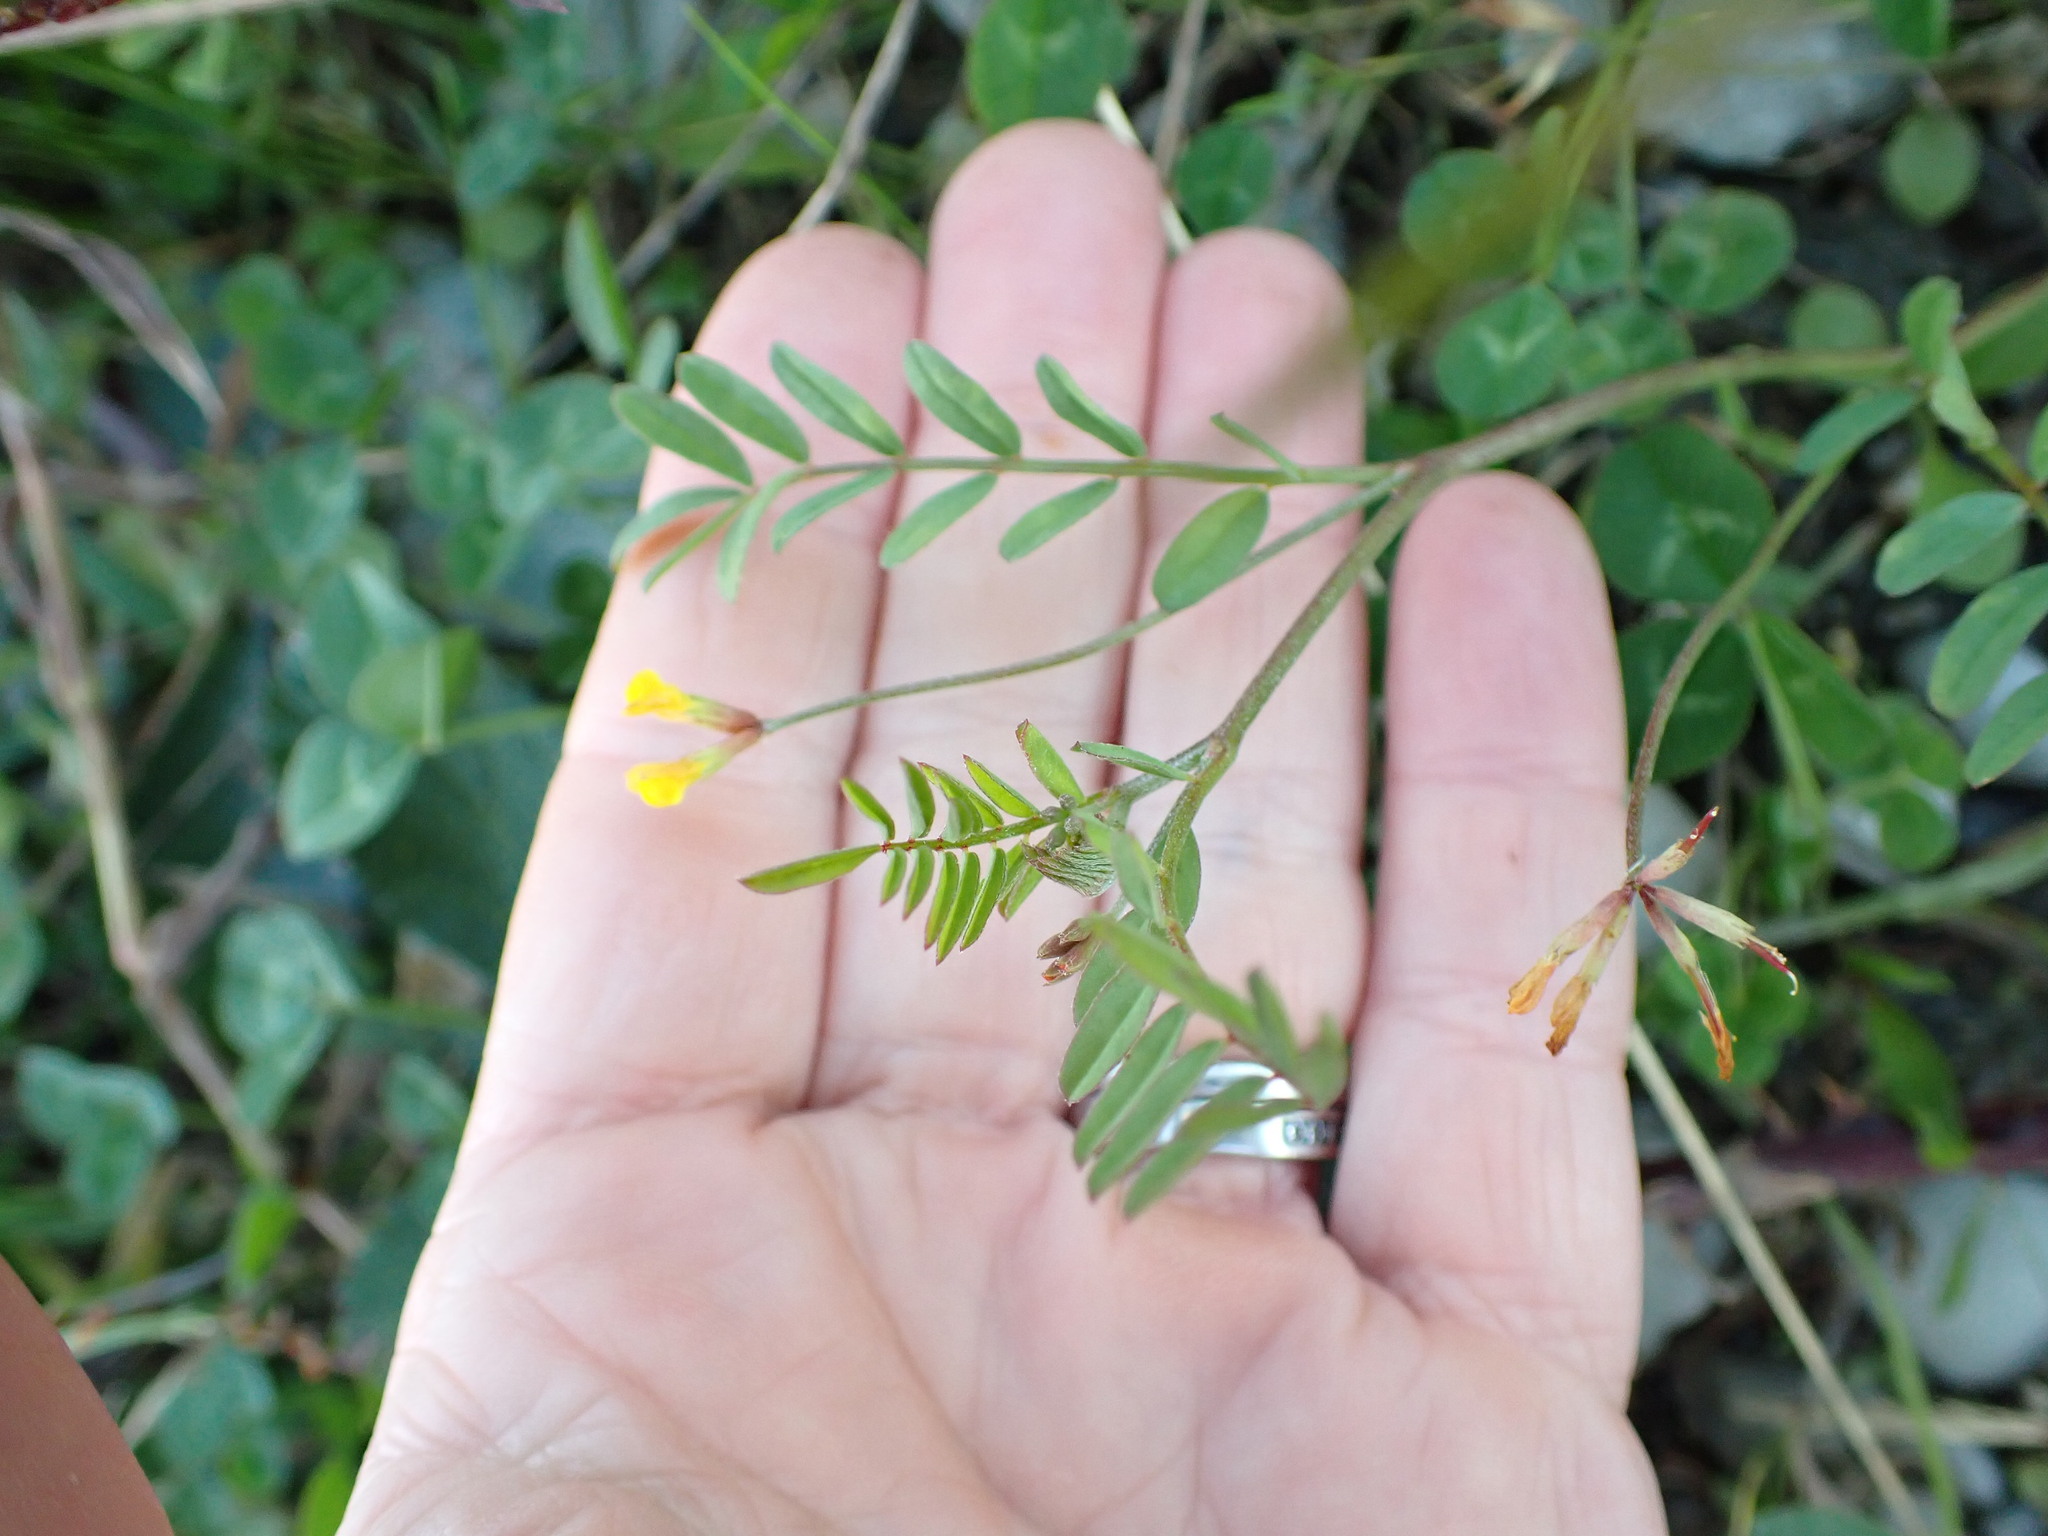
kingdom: Plantae
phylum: Tracheophyta
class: Magnoliopsida
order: Fabales
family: Fabaceae
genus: Ornithopus
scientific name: Ornithopus pinnatus
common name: Orange bird's-foot
